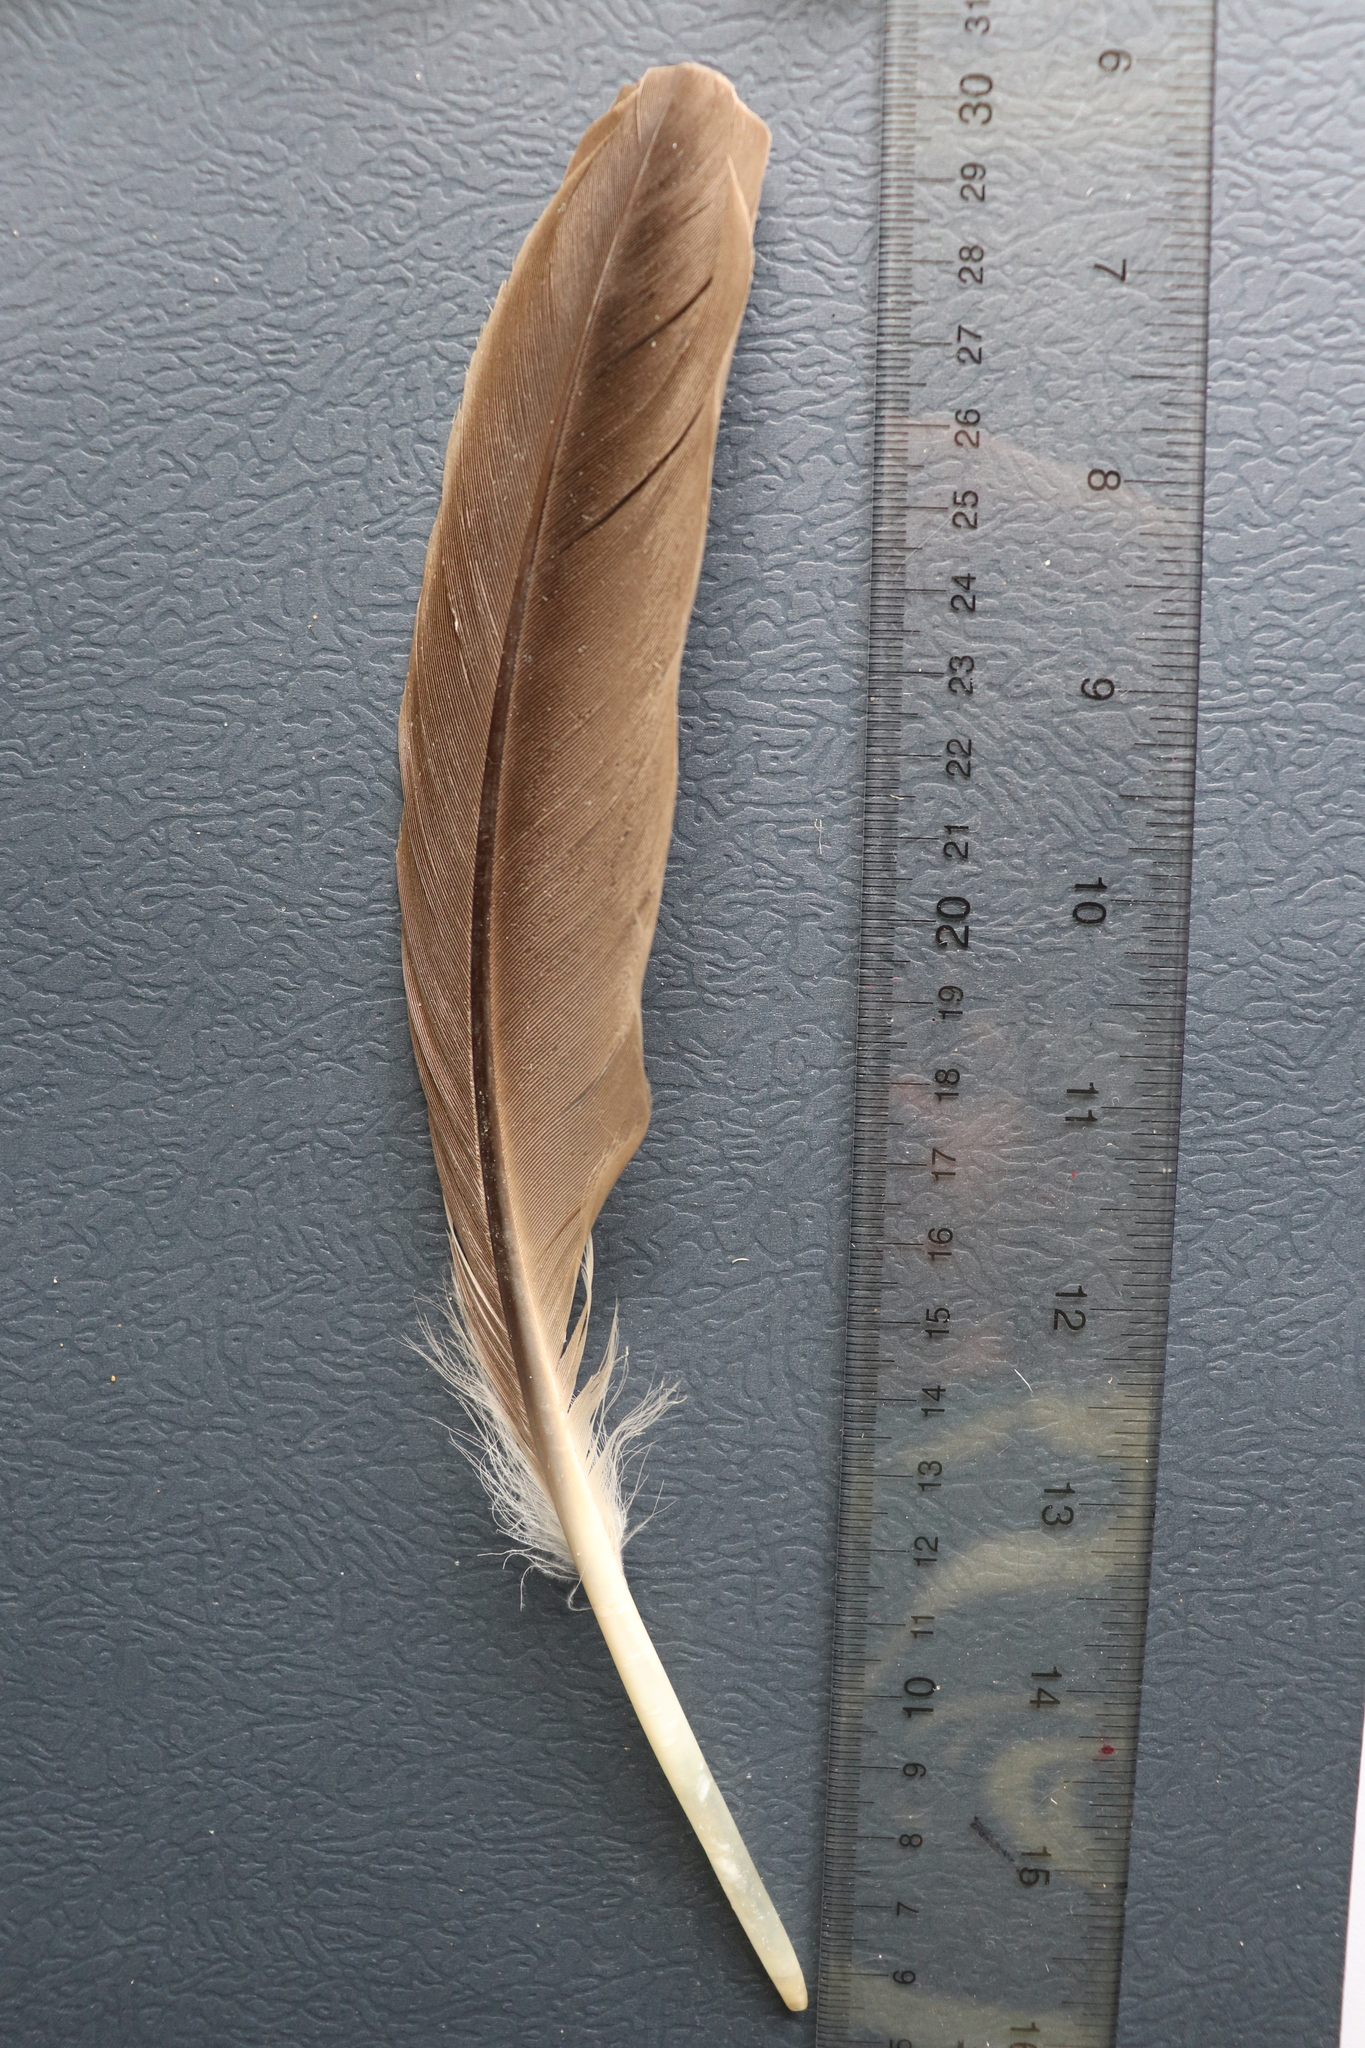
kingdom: Animalia
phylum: Chordata
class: Aves
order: Anseriformes
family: Anatidae
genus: Branta
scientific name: Branta canadensis
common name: Canada goose
